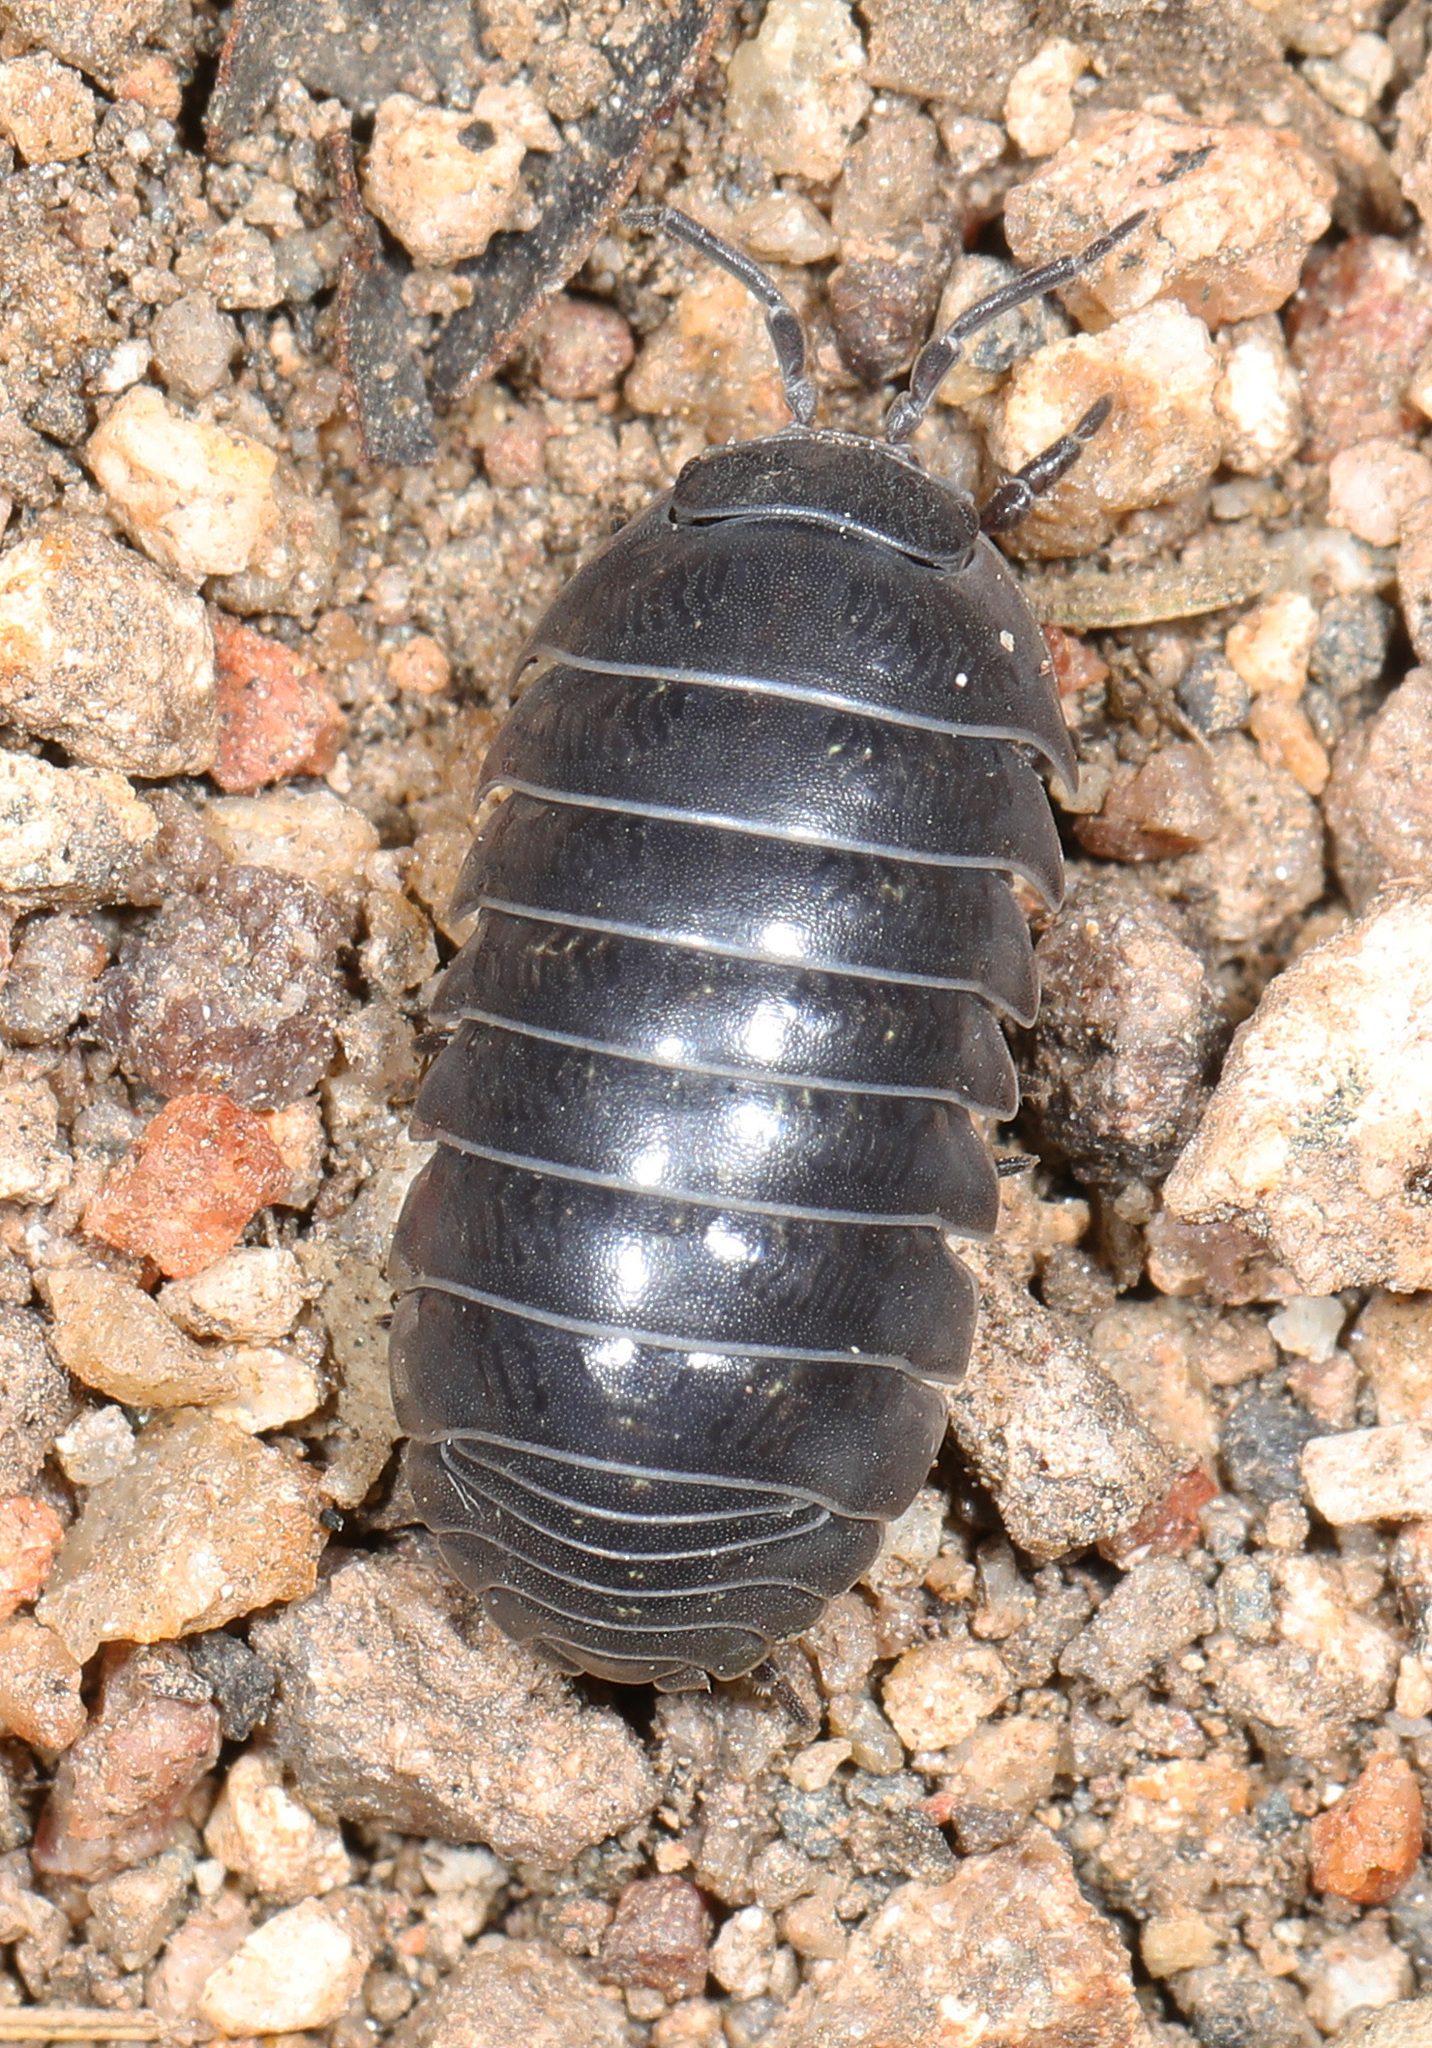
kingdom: Animalia
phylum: Arthropoda
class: Malacostraca
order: Isopoda
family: Armadillidiidae
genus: Armadillidium
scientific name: Armadillidium vulgare
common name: Common pill woodlouse
